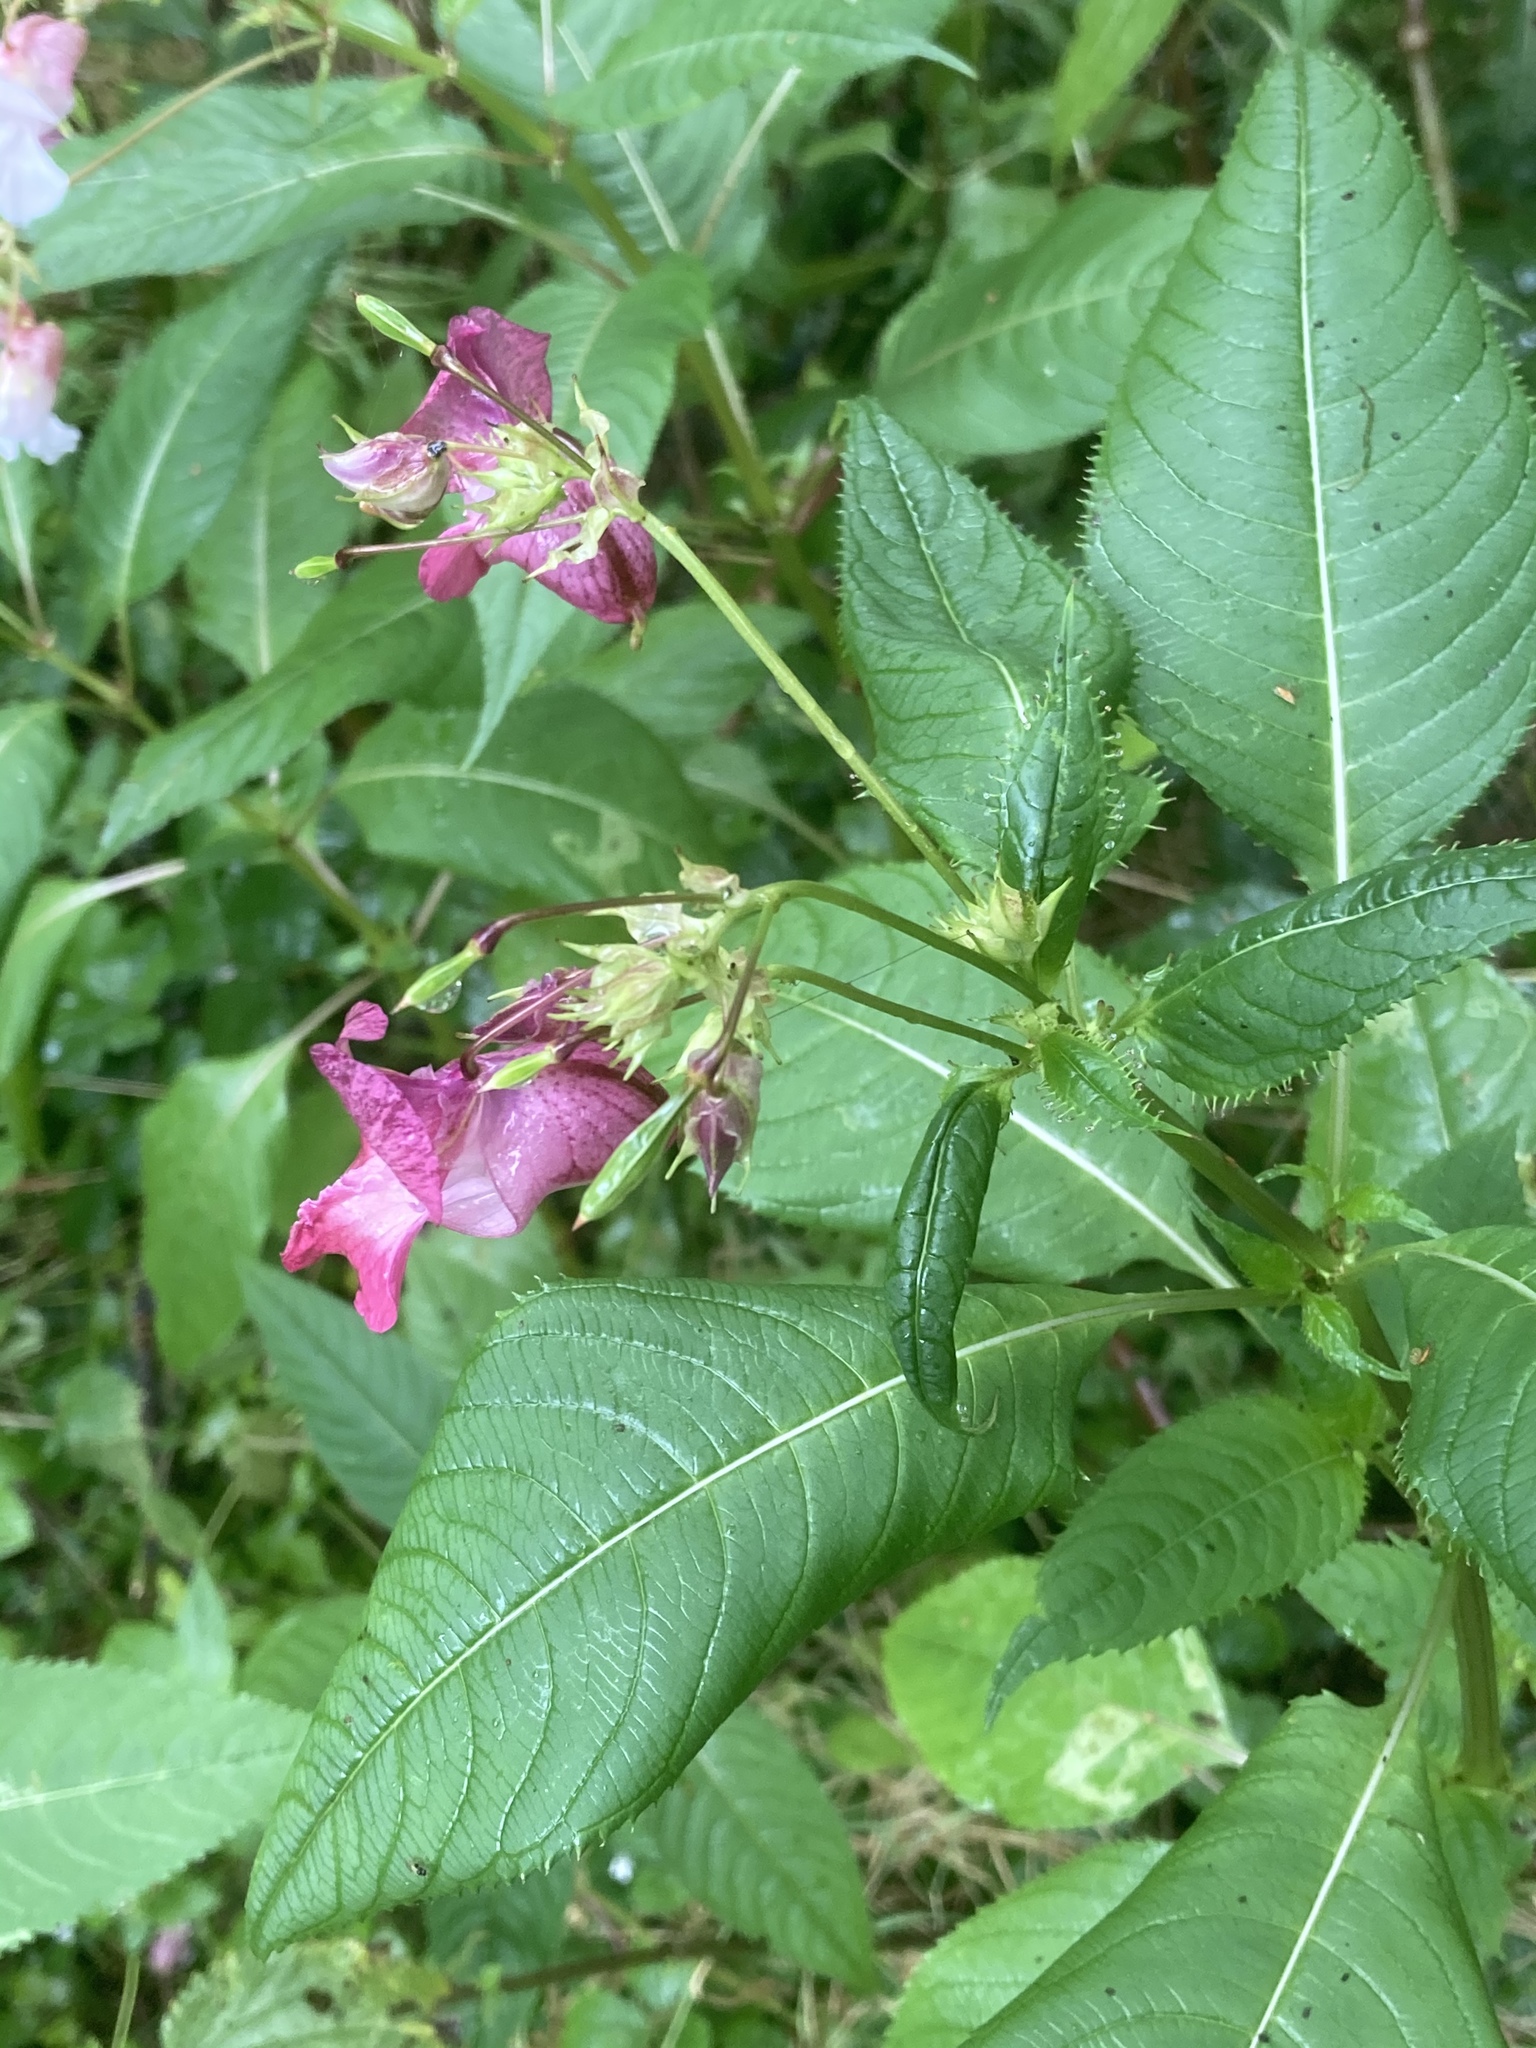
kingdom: Plantae
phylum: Tracheophyta
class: Magnoliopsida
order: Ericales
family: Balsaminaceae
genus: Impatiens
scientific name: Impatiens glandulifera
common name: Himalayan balsam
